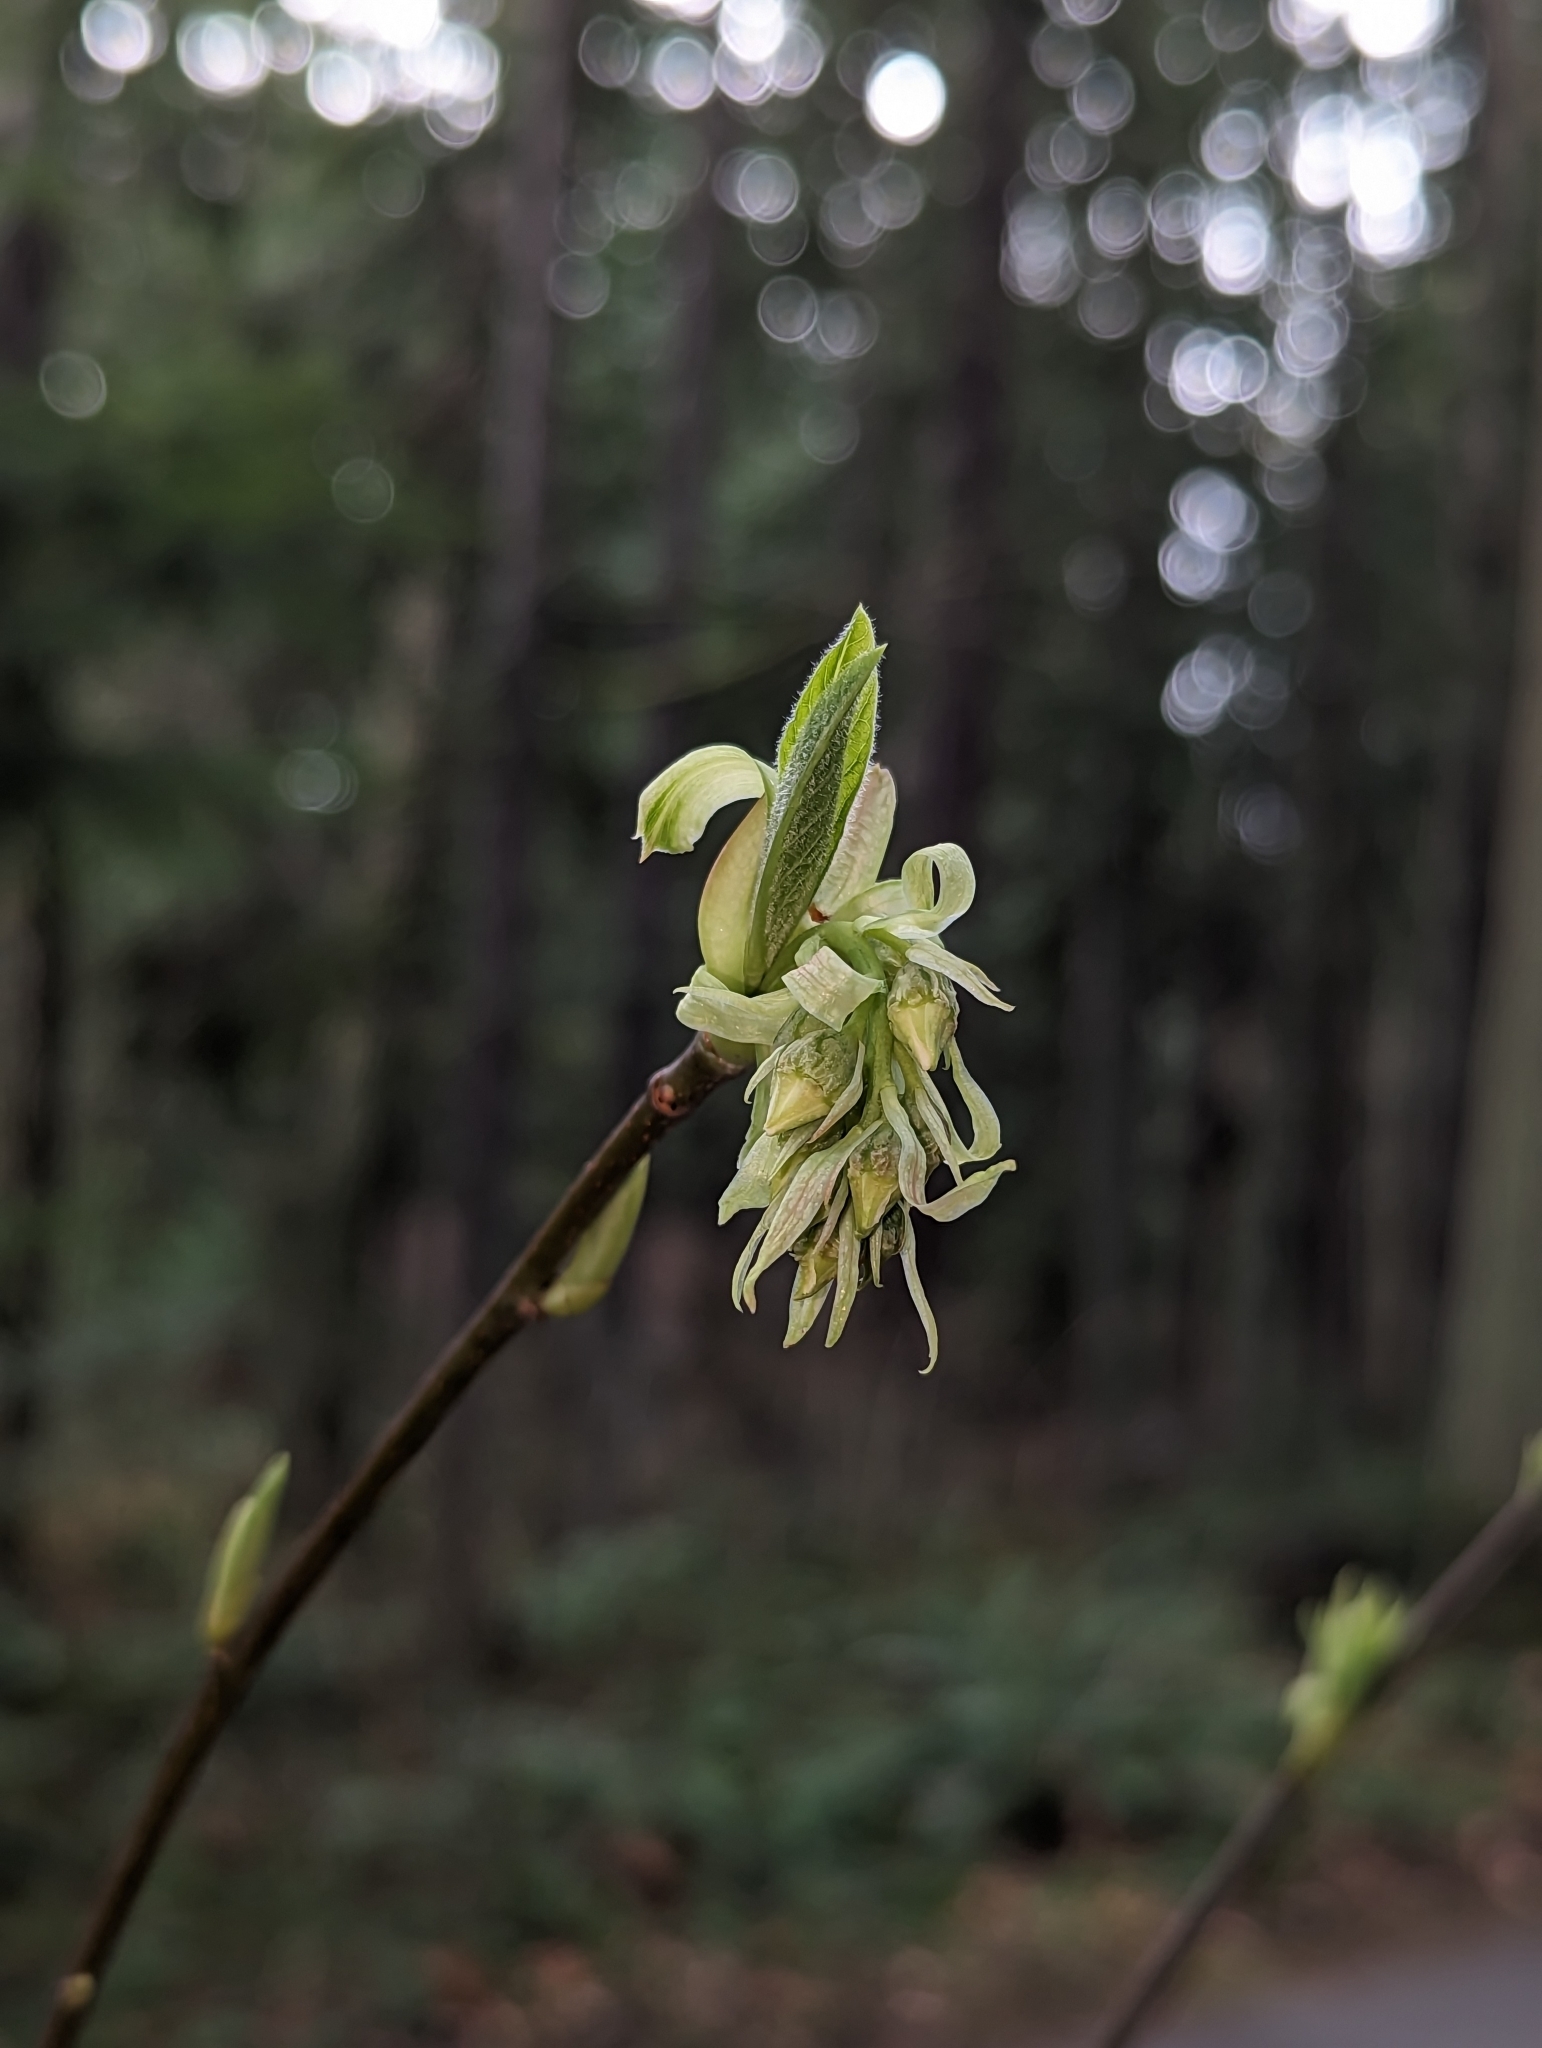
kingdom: Plantae
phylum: Tracheophyta
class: Magnoliopsida
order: Rosales
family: Rosaceae
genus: Oemleria
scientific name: Oemleria cerasiformis
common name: Osoberry
